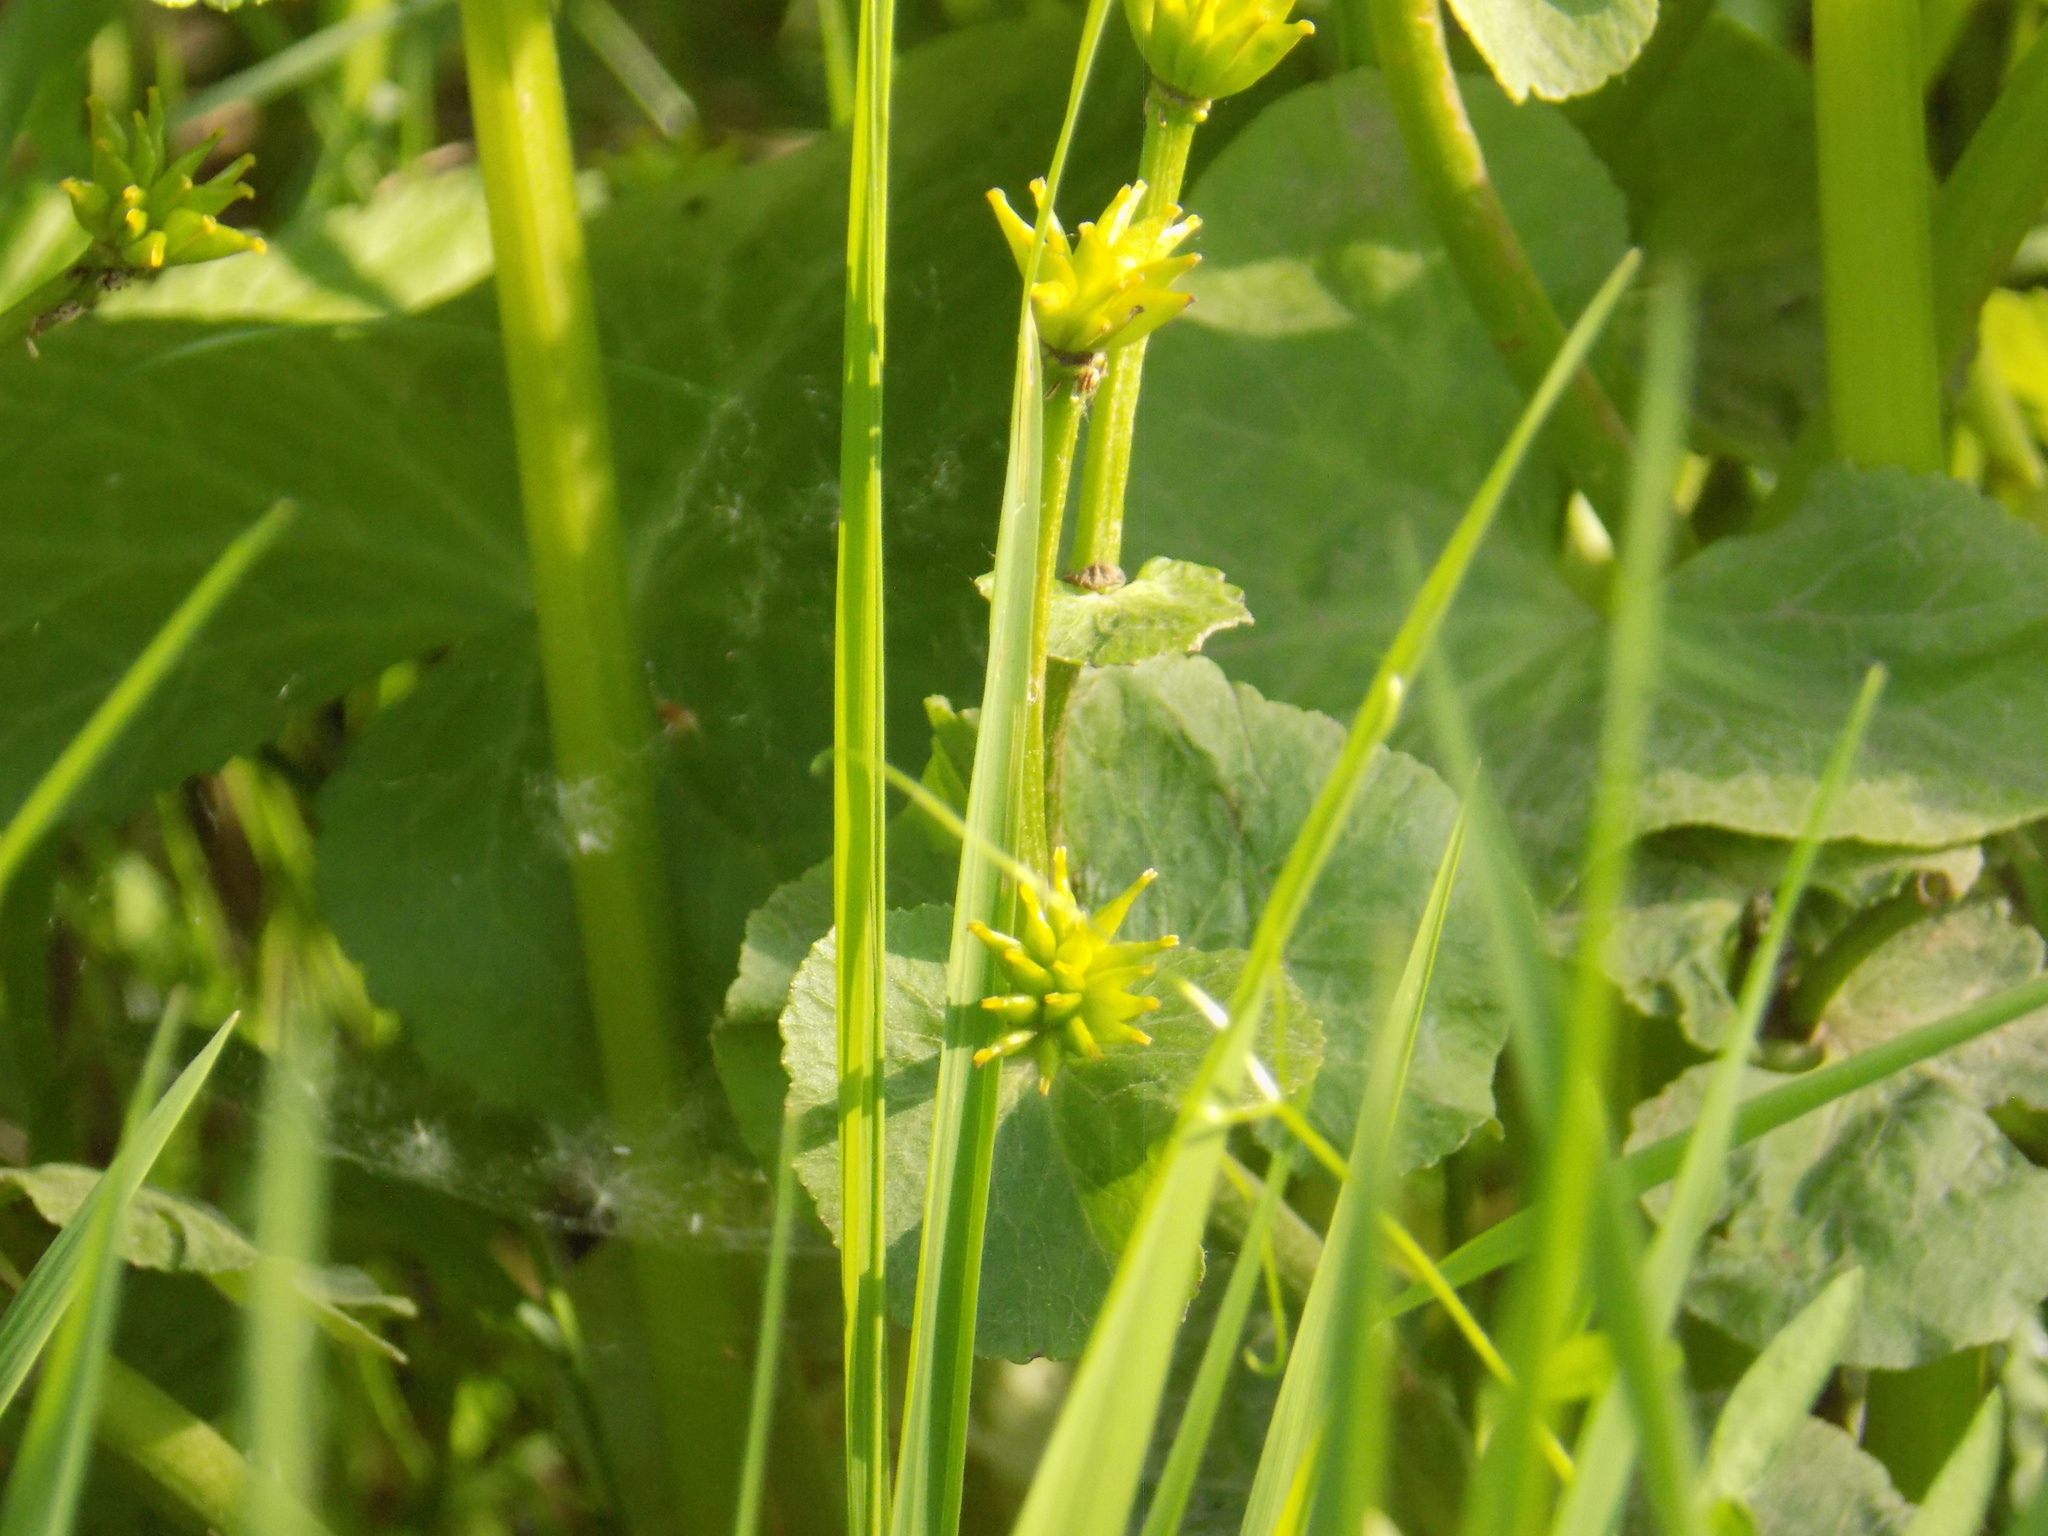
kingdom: Plantae
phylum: Tracheophyta
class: Magnoliopsida
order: Ranunculales
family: Ranunculaceae
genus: Caltha
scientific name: Caltha palustris
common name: Marsh marigold
